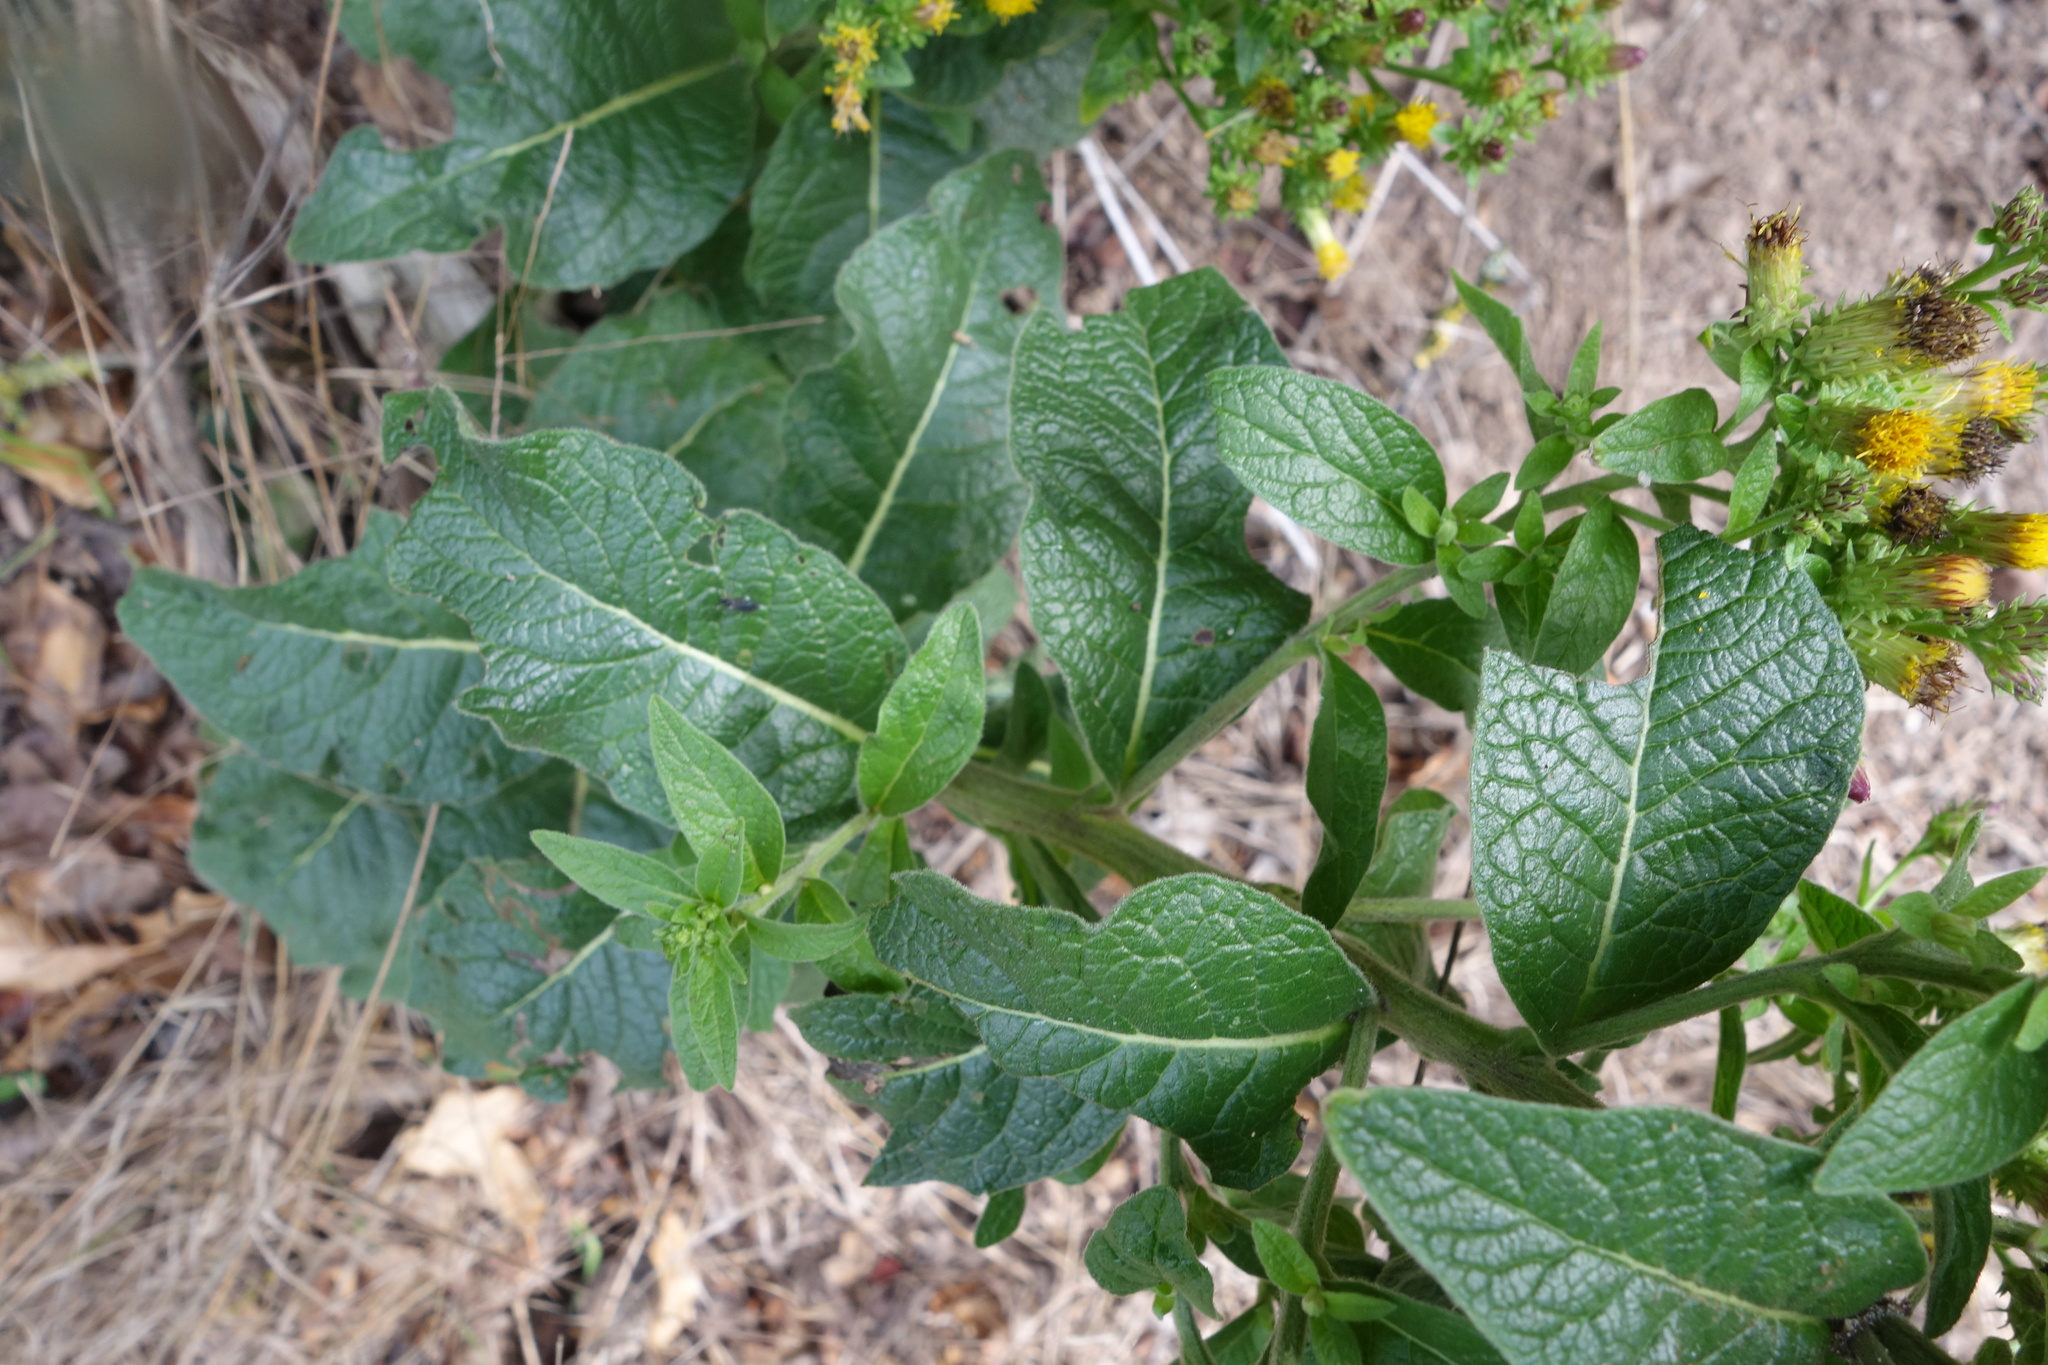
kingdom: Plantae
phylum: Tracheophyta
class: Magnoliopsida
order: Asterales
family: Asteraceae
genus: Pentanema
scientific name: Pentanema squarrosum
